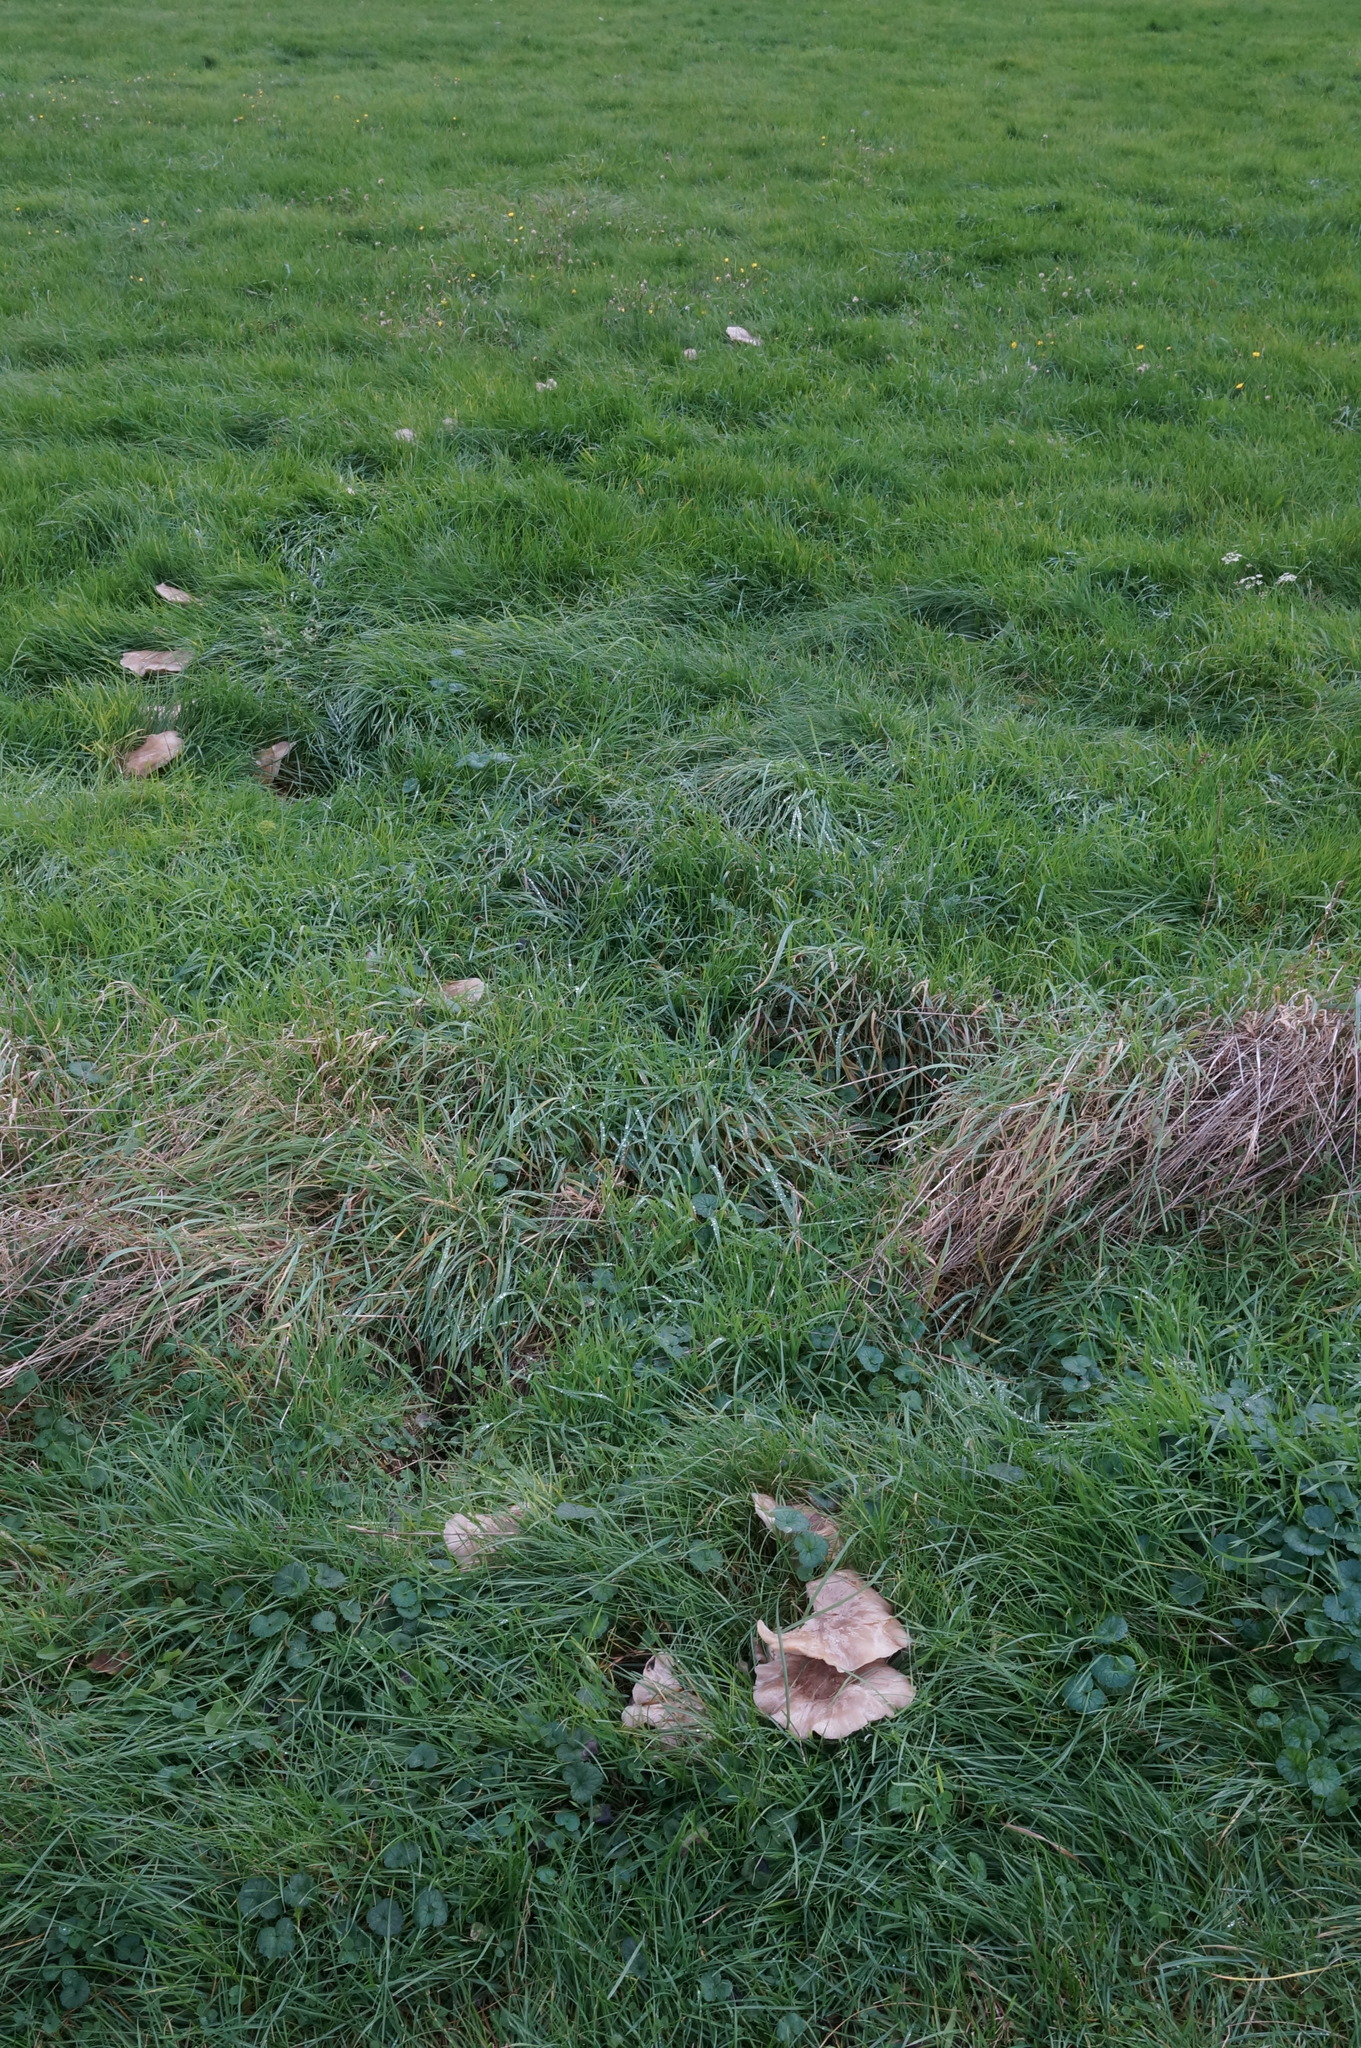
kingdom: Fungi
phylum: Basidiomycota
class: Agaricomycetes
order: Agaricales
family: Tricholomataceae
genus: Clitocybe
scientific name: Clitocybe nebularis
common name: Clouded agaric
